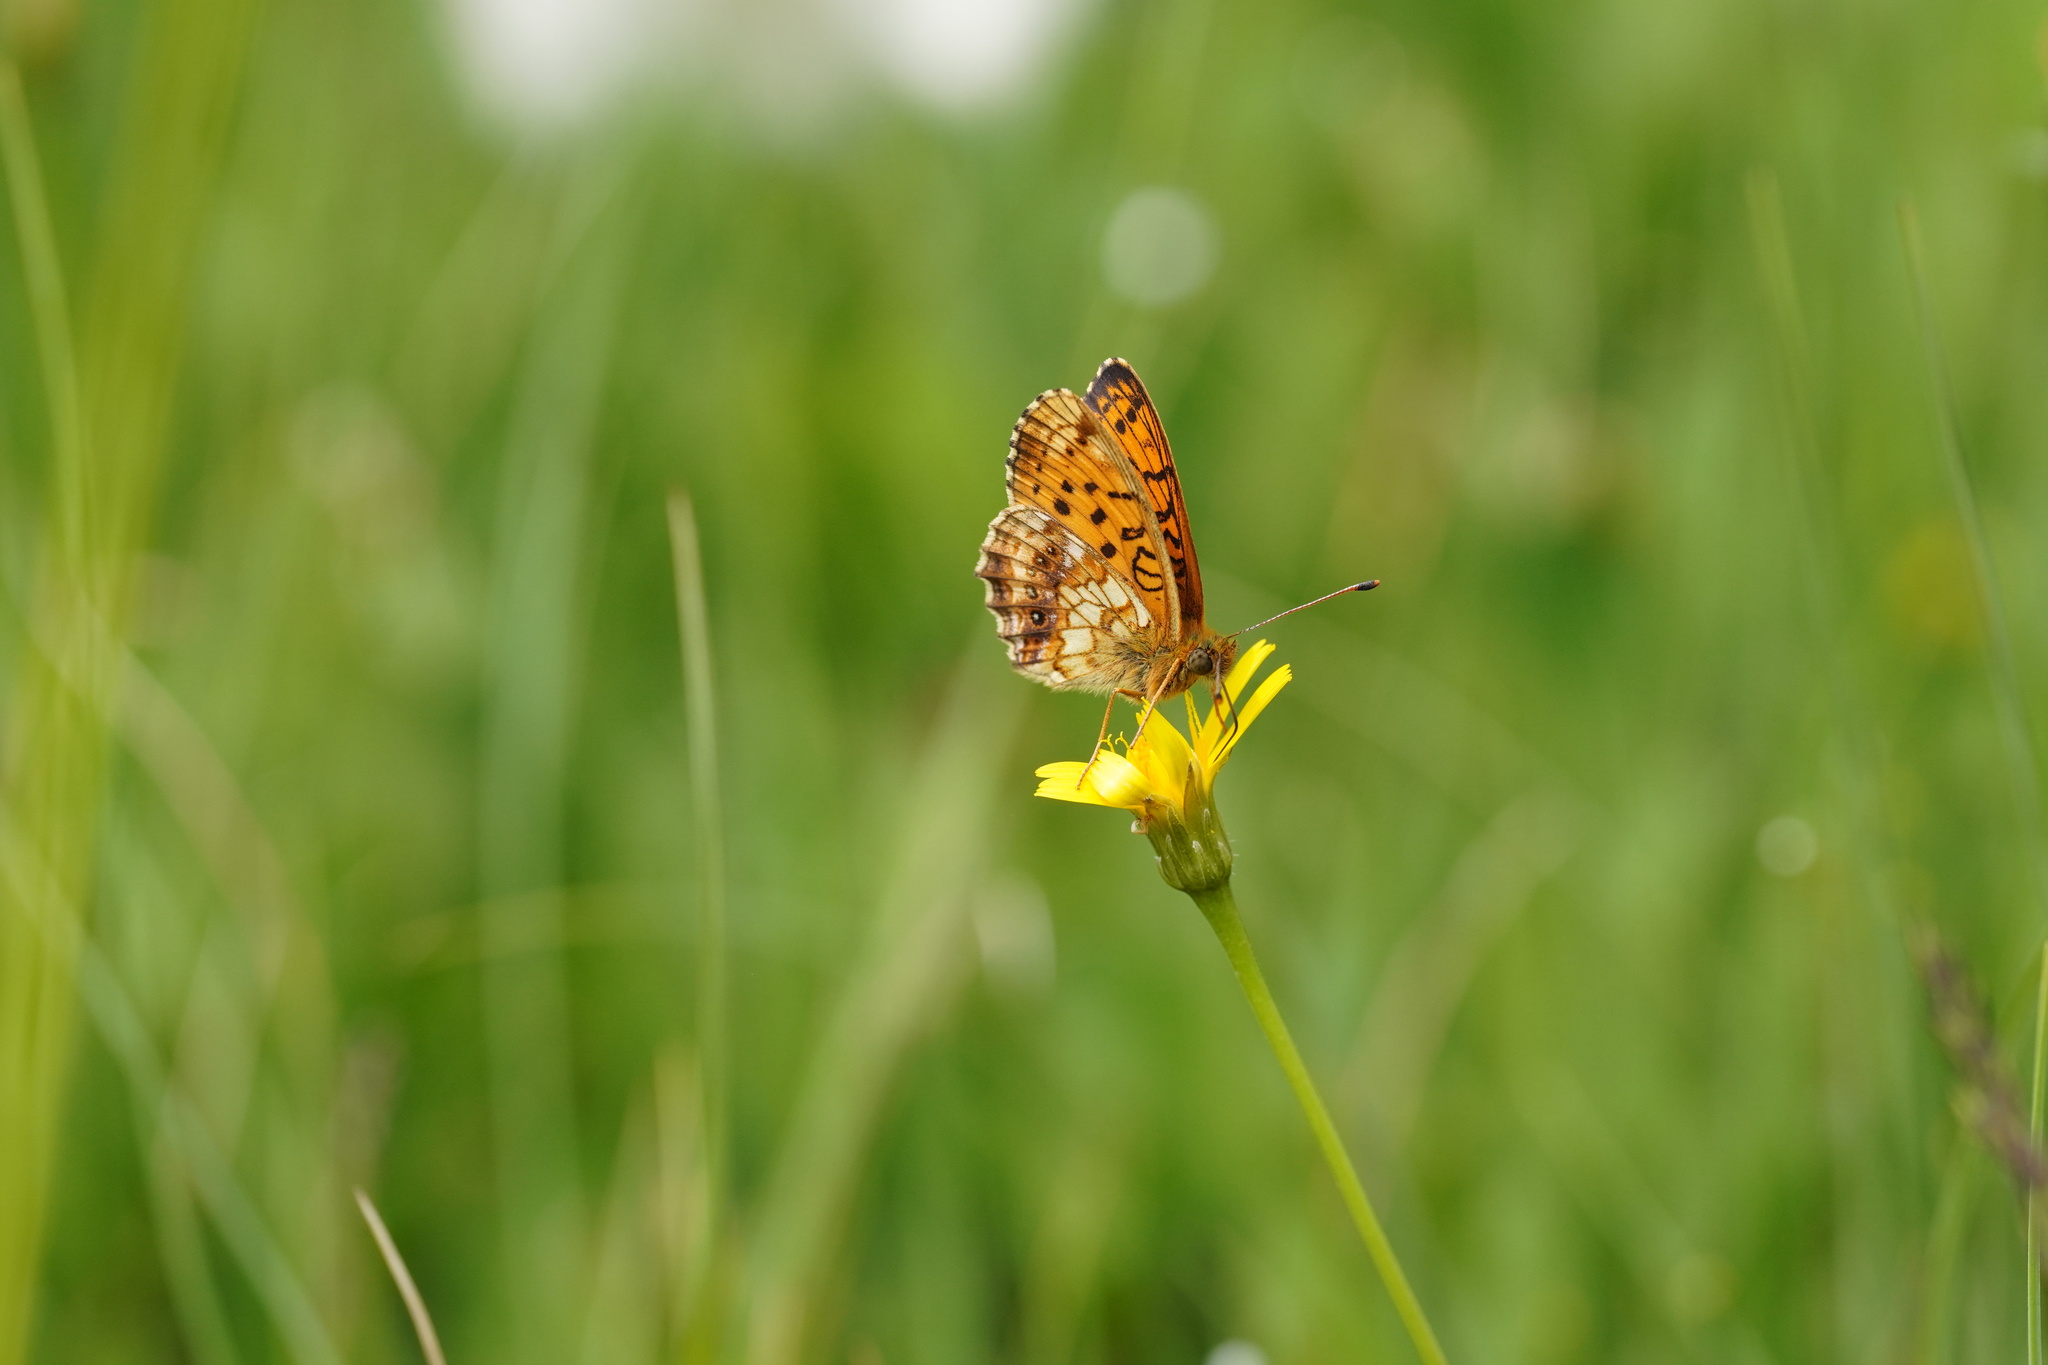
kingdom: Animalia
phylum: Arthropoda
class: Insecta
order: Lepidoptera
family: Nymphalidae
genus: Brenthis
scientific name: Brenthis ino
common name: Lesser marbled fritillary
